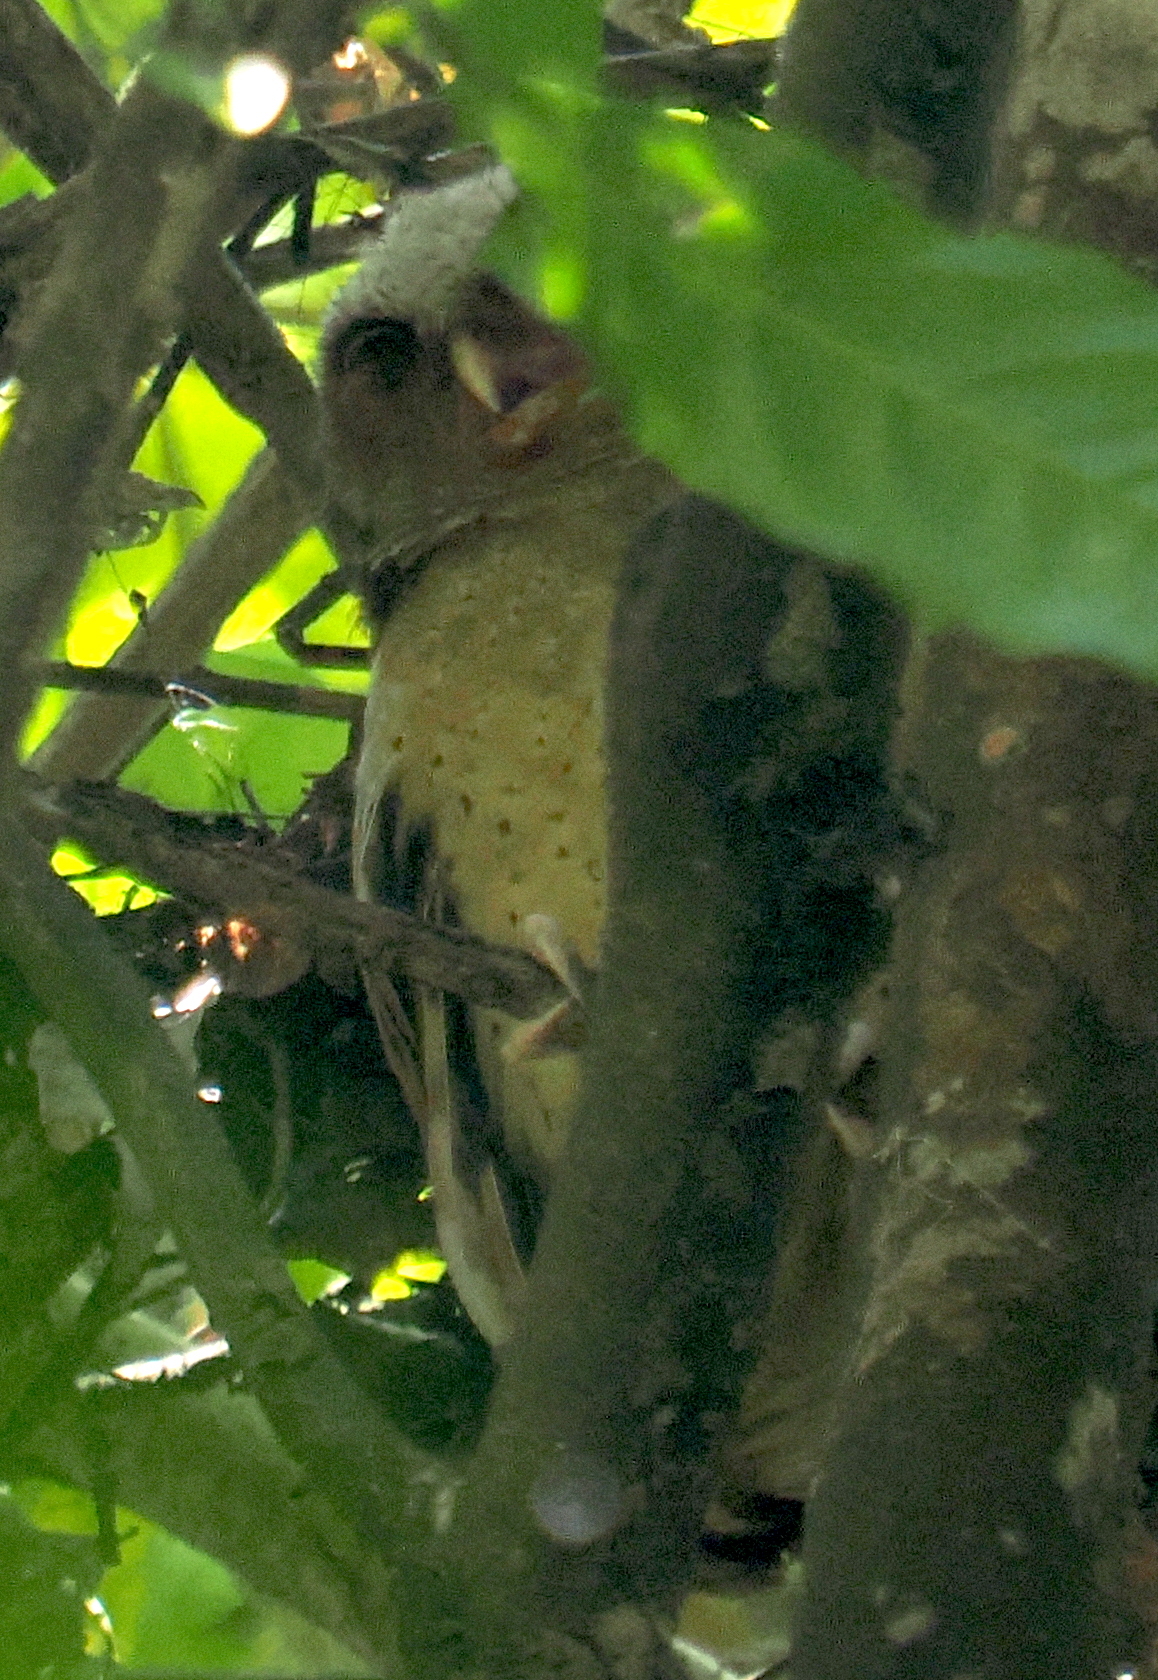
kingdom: Animalia
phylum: Chordata
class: Aves
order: Strigiformes
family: Strigidae
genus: Otus
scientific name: Otus sagittatus
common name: White-fronted scops owl
